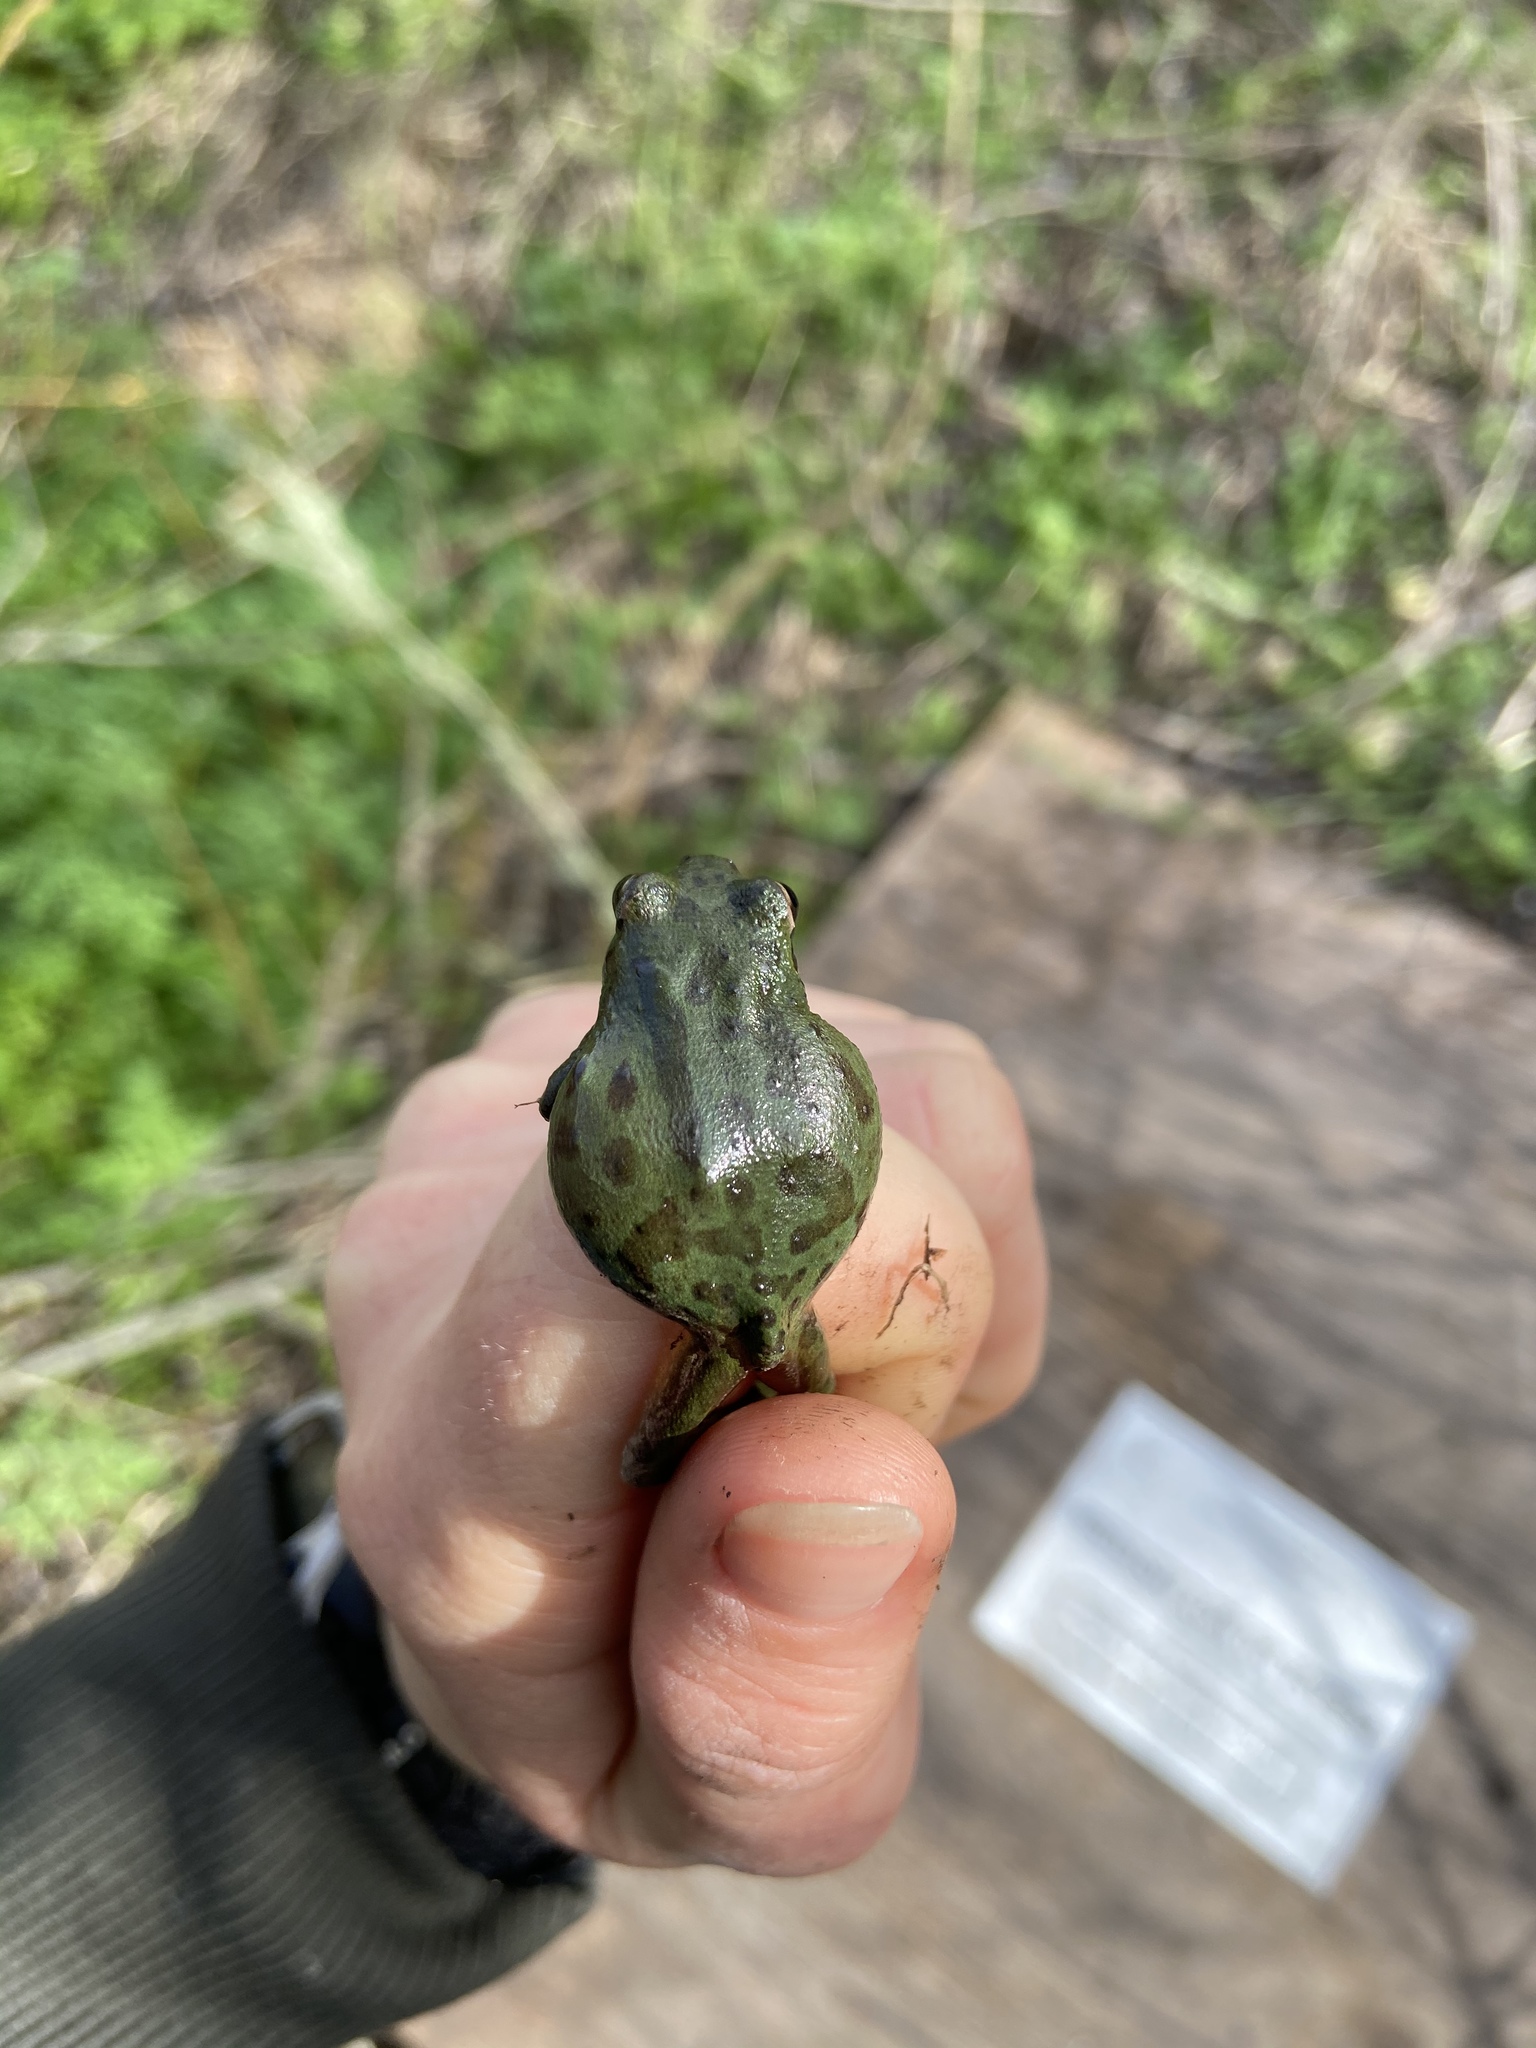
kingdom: Animalia
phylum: Chordata
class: Amphibia
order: Anura
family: Hylidae
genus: Pseudacris
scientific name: Pseudacris regilla
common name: Pacific chorus frog
